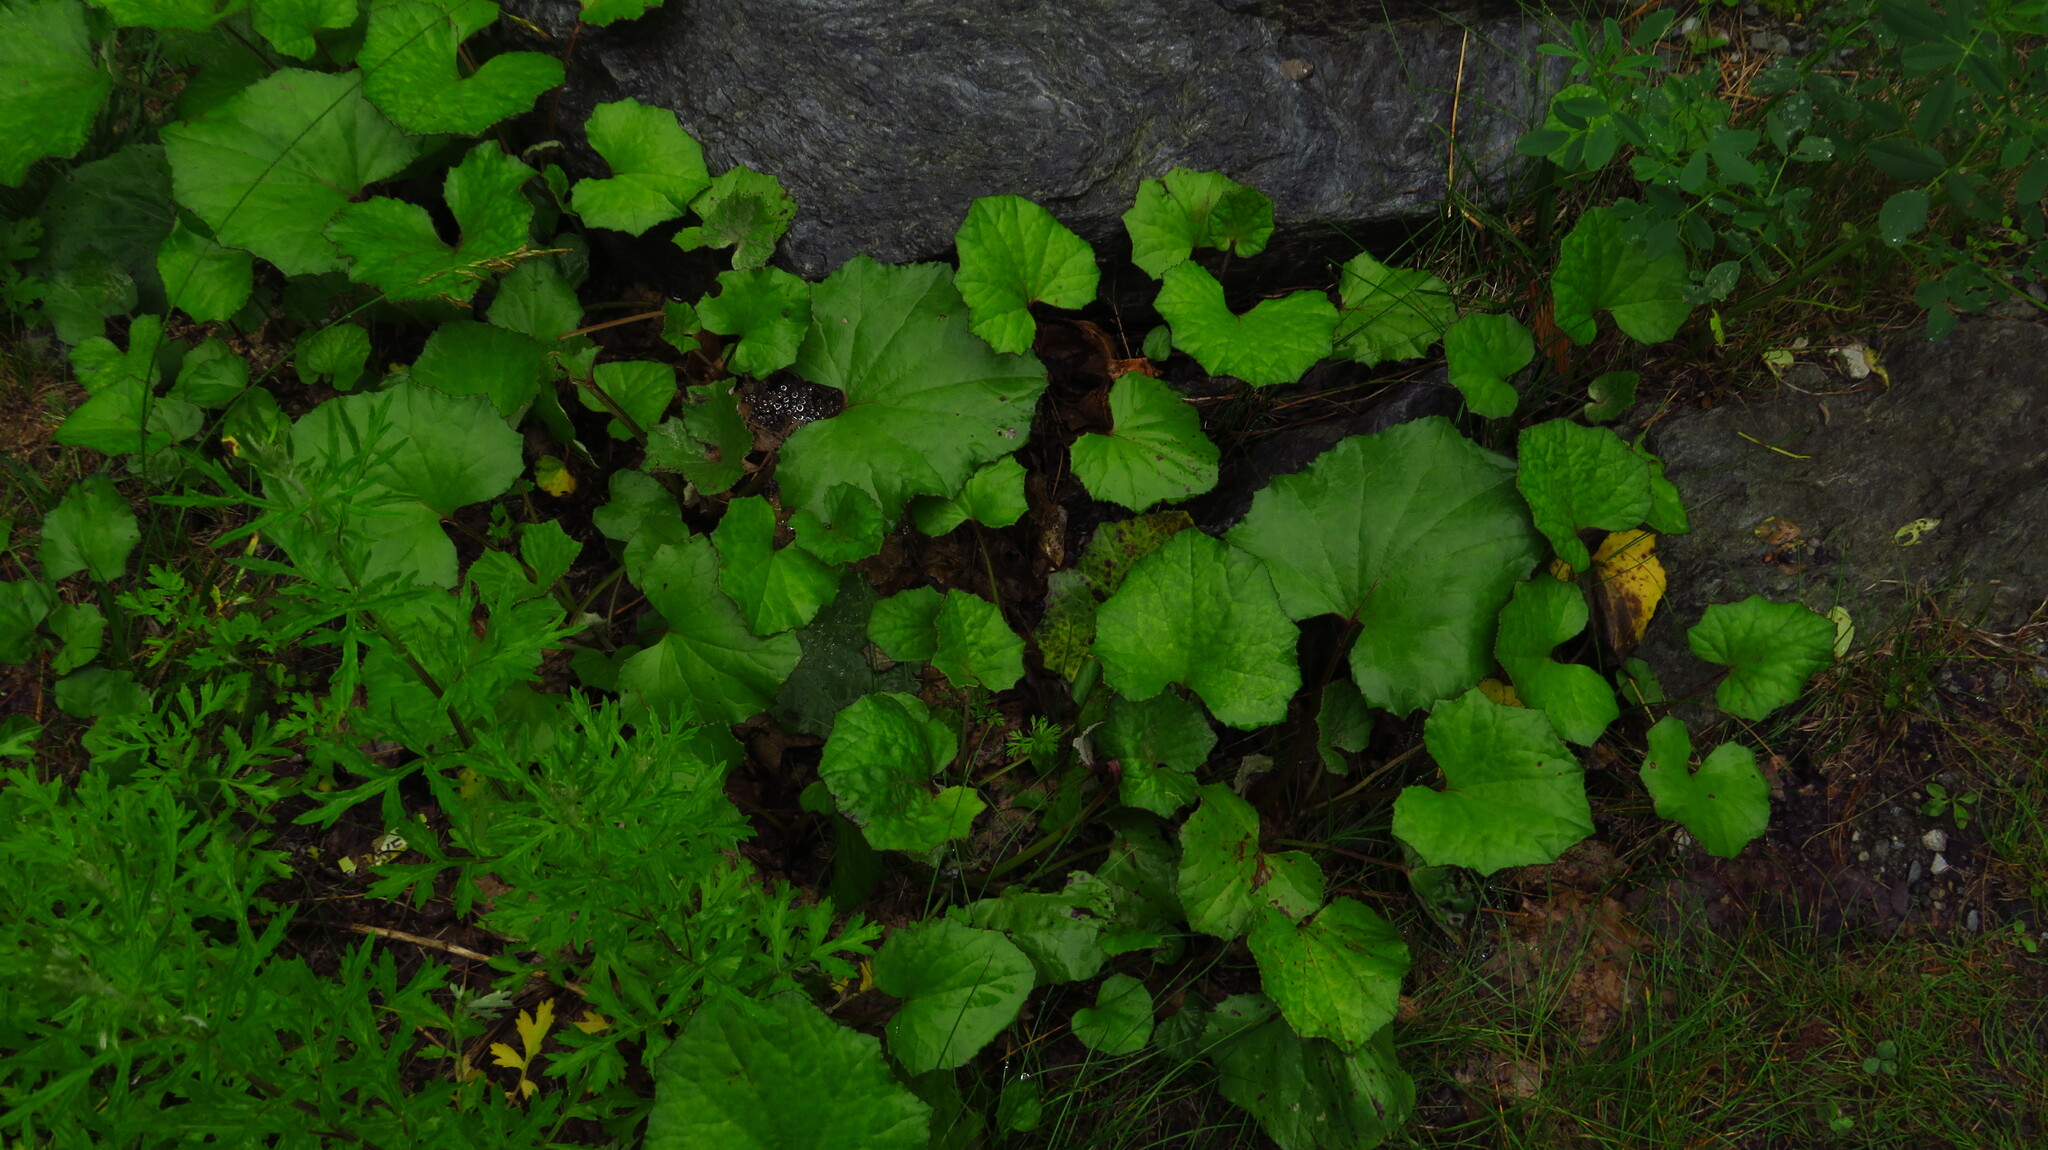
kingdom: Plantae
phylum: Tracheophyta
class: Magnoliopsida
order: Asterales
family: Asteraceae
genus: Tussilago
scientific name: Tussilago farfara
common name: Coltsfoot
